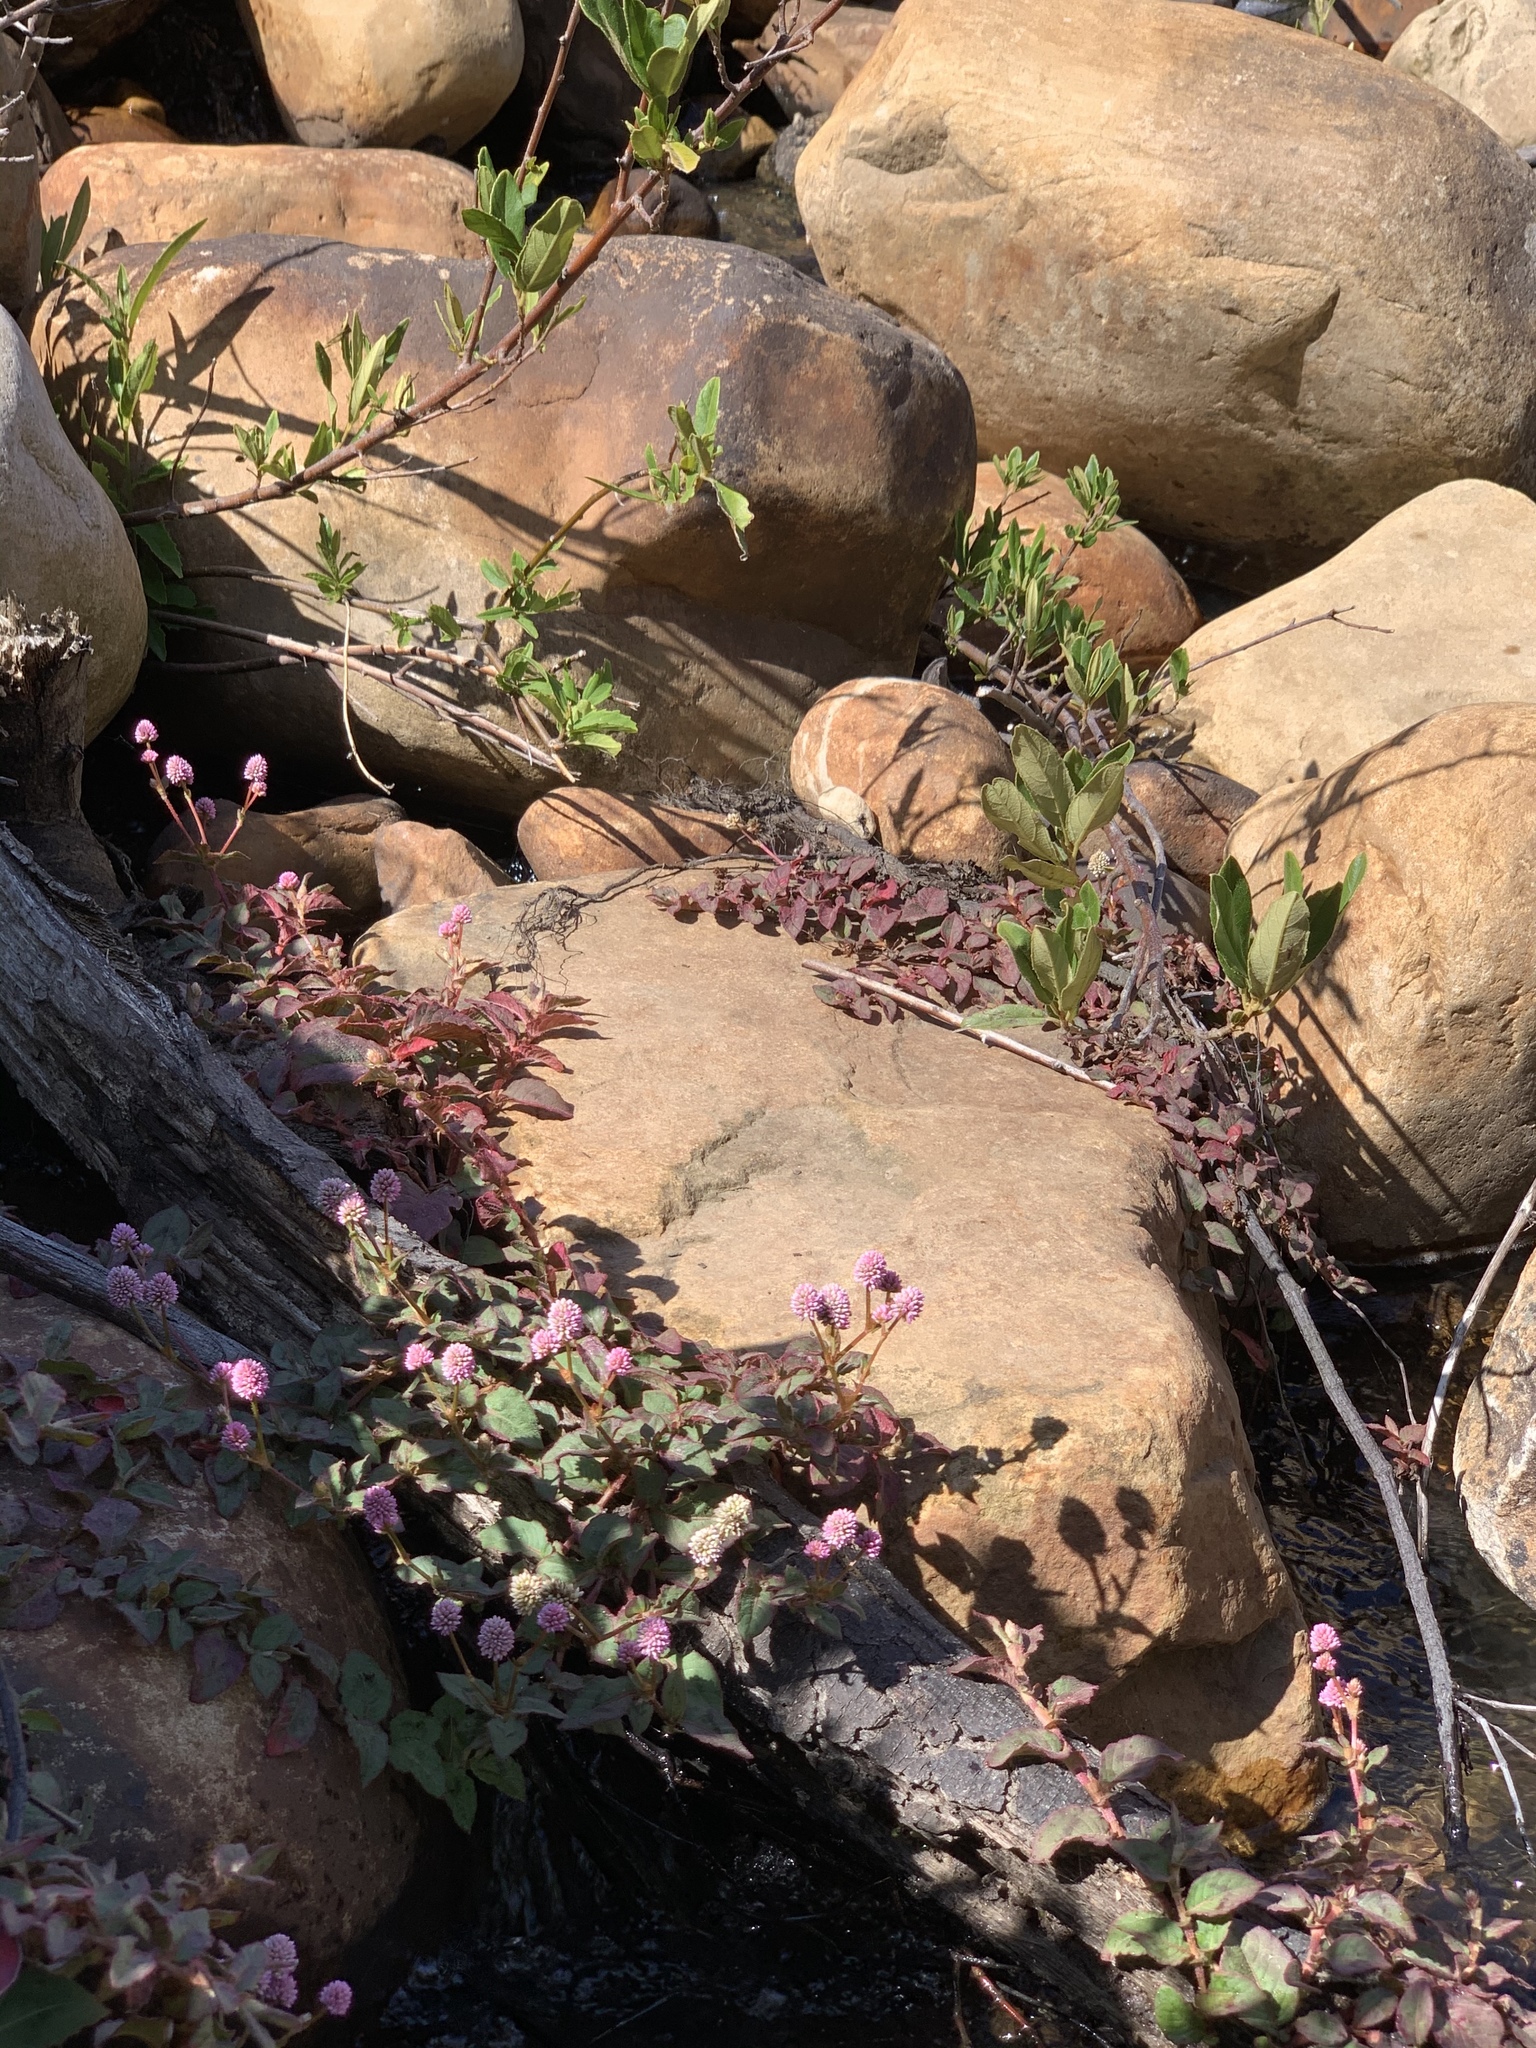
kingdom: Plantae
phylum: Tracheophyta
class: Magnoliopsida
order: Caryophyllales
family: Polygonaceae
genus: Persicaria
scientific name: Persicaria capitata
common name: Pinkhead smartweed
